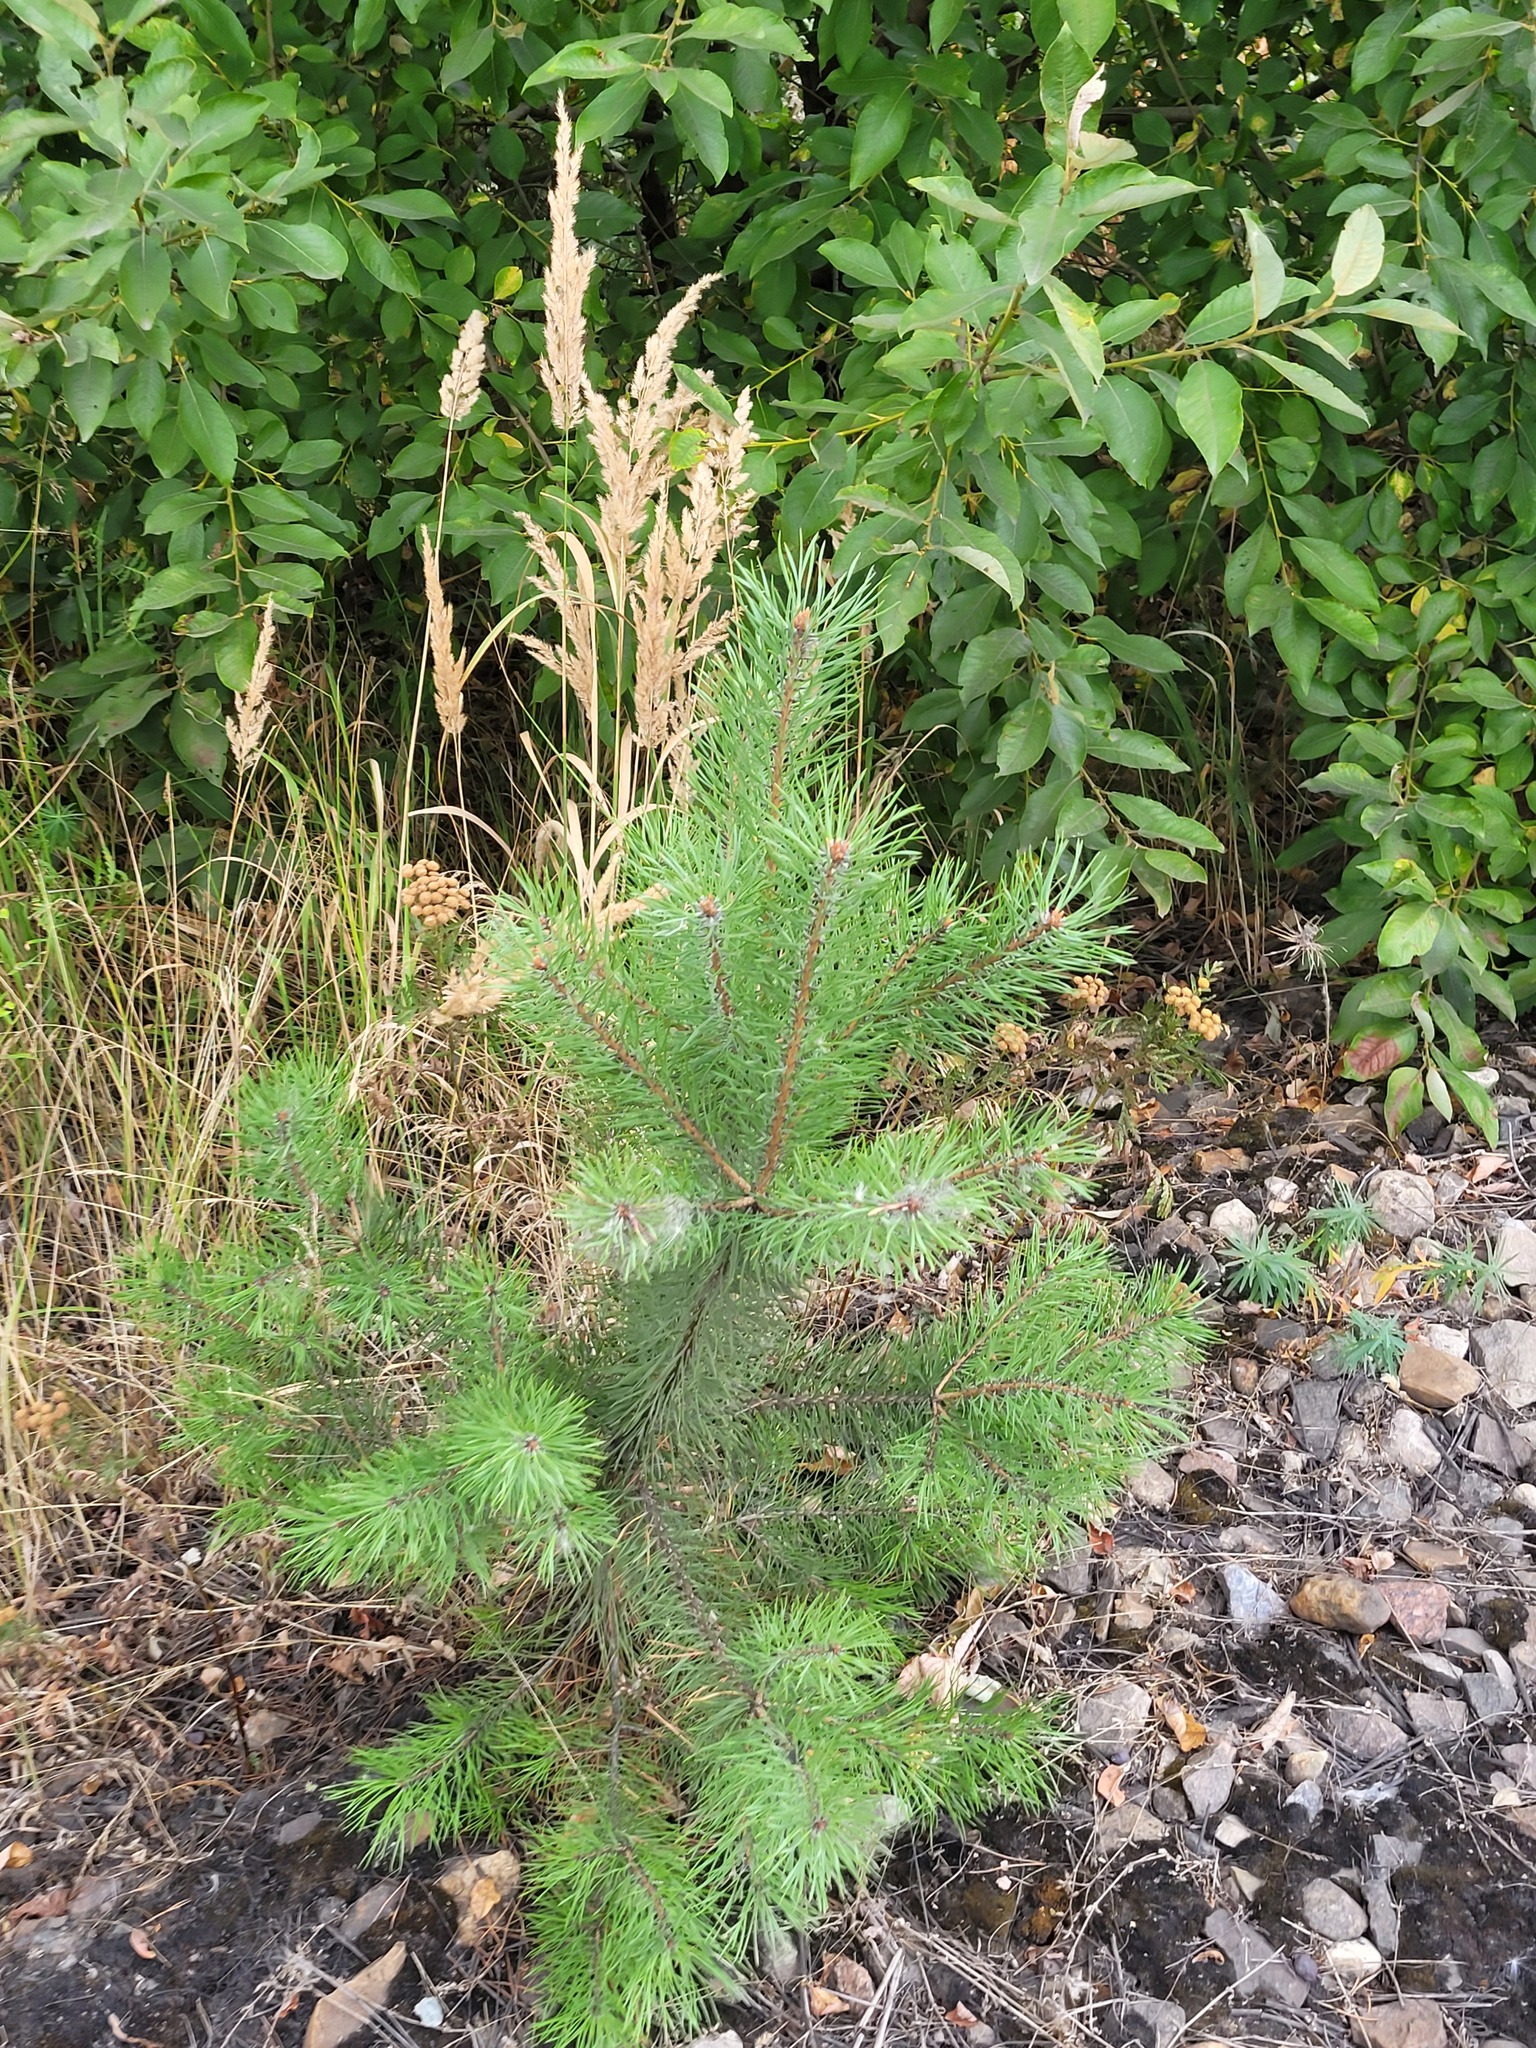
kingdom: Plantae
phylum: Tracheophyta
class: Pinopsida
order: Pinales
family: Pinaceae
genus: Pinus
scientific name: Pinus sylvestris
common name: Scots pine
